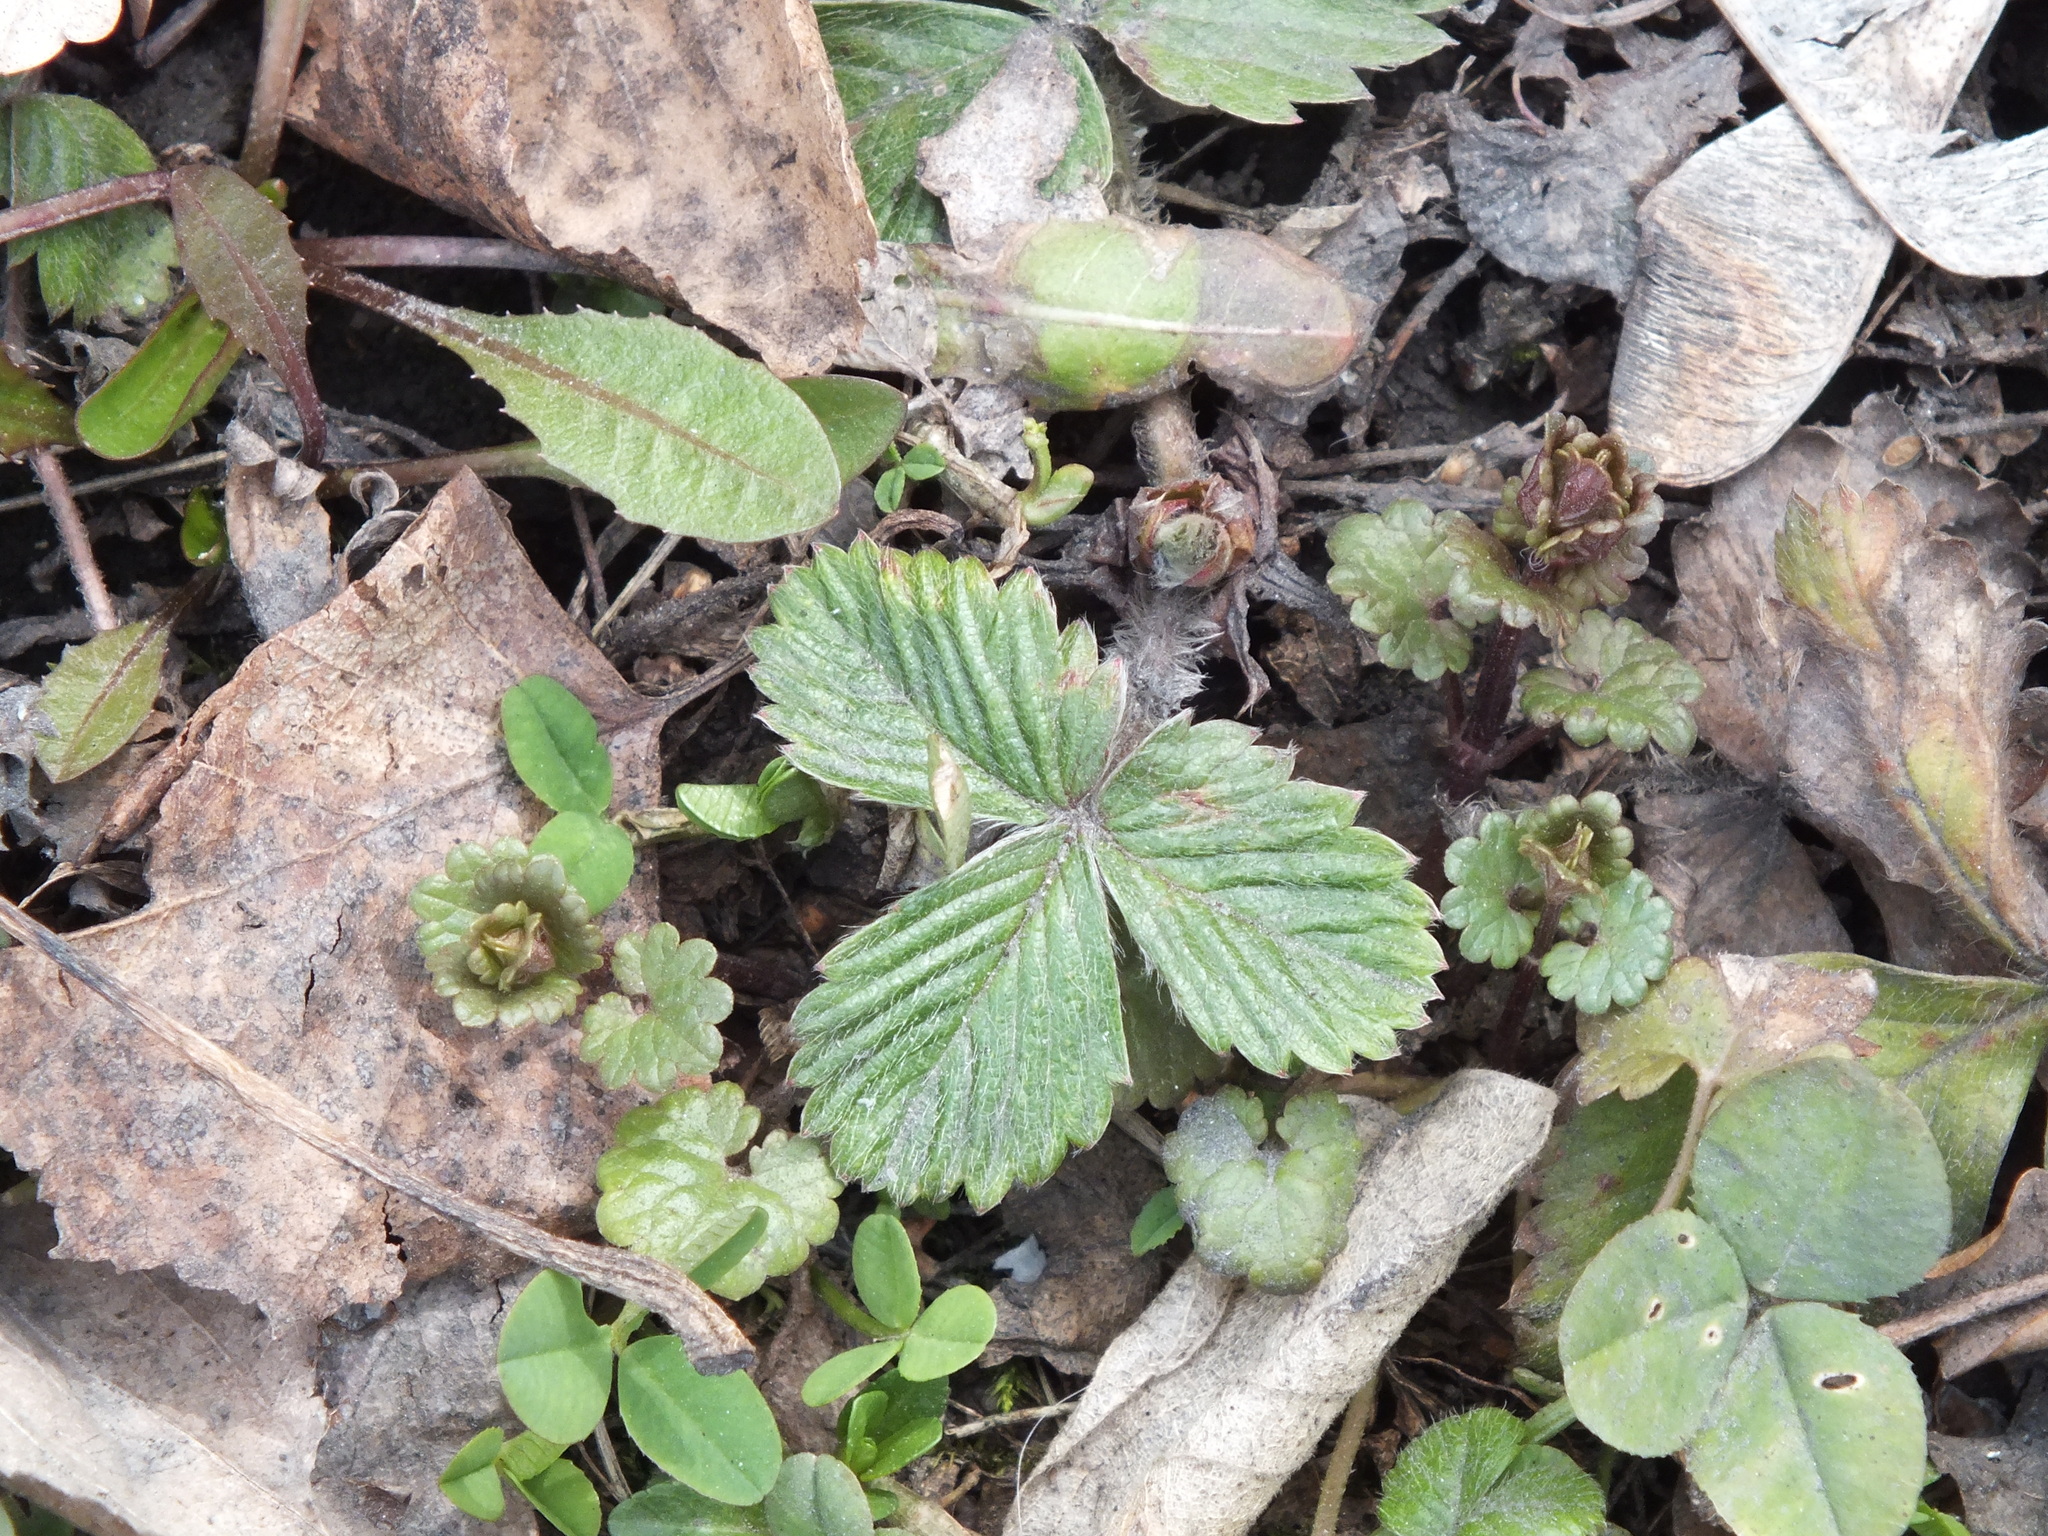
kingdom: Plantae
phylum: Tracheophyta
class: Magnoliopsida
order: Rosales
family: Rosaceae
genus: Fragaria
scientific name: Fragaria vesca
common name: Wild strawberry
